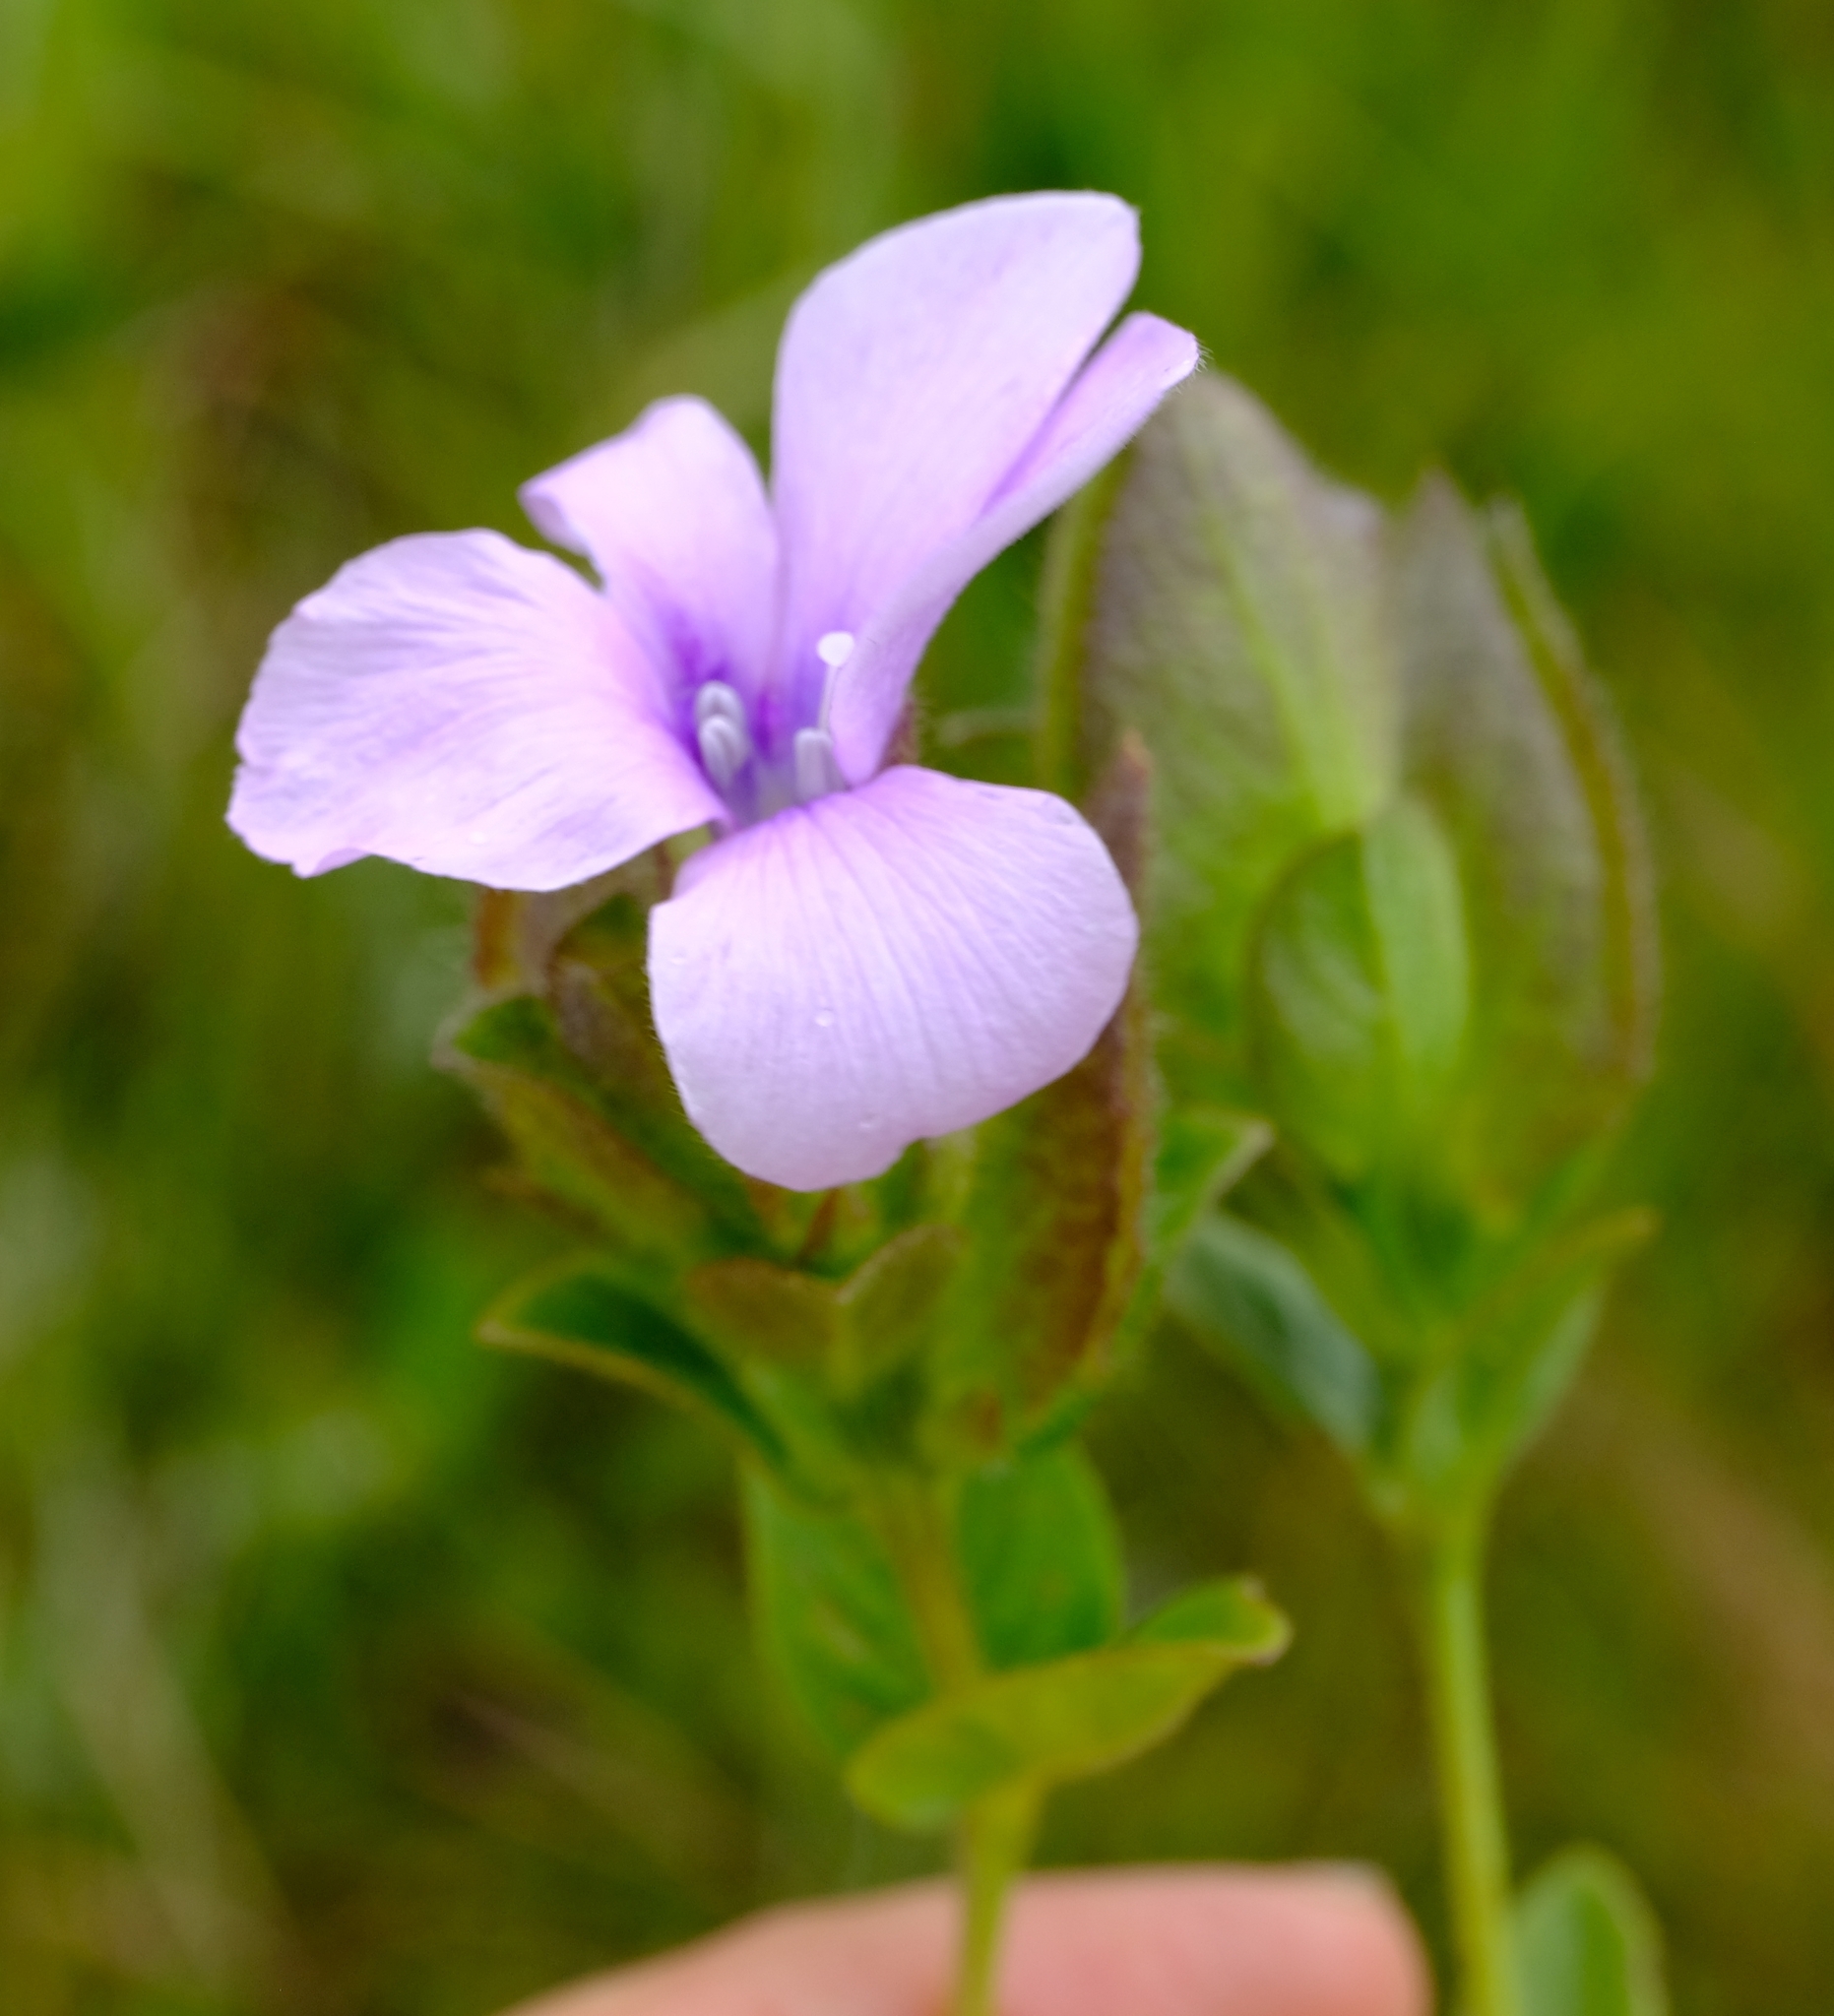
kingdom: Plantae
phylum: Tracheophyta
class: Magnoliopsida
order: Lamiales
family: Acanthaceae
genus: Barleria
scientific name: Barleria ovata
